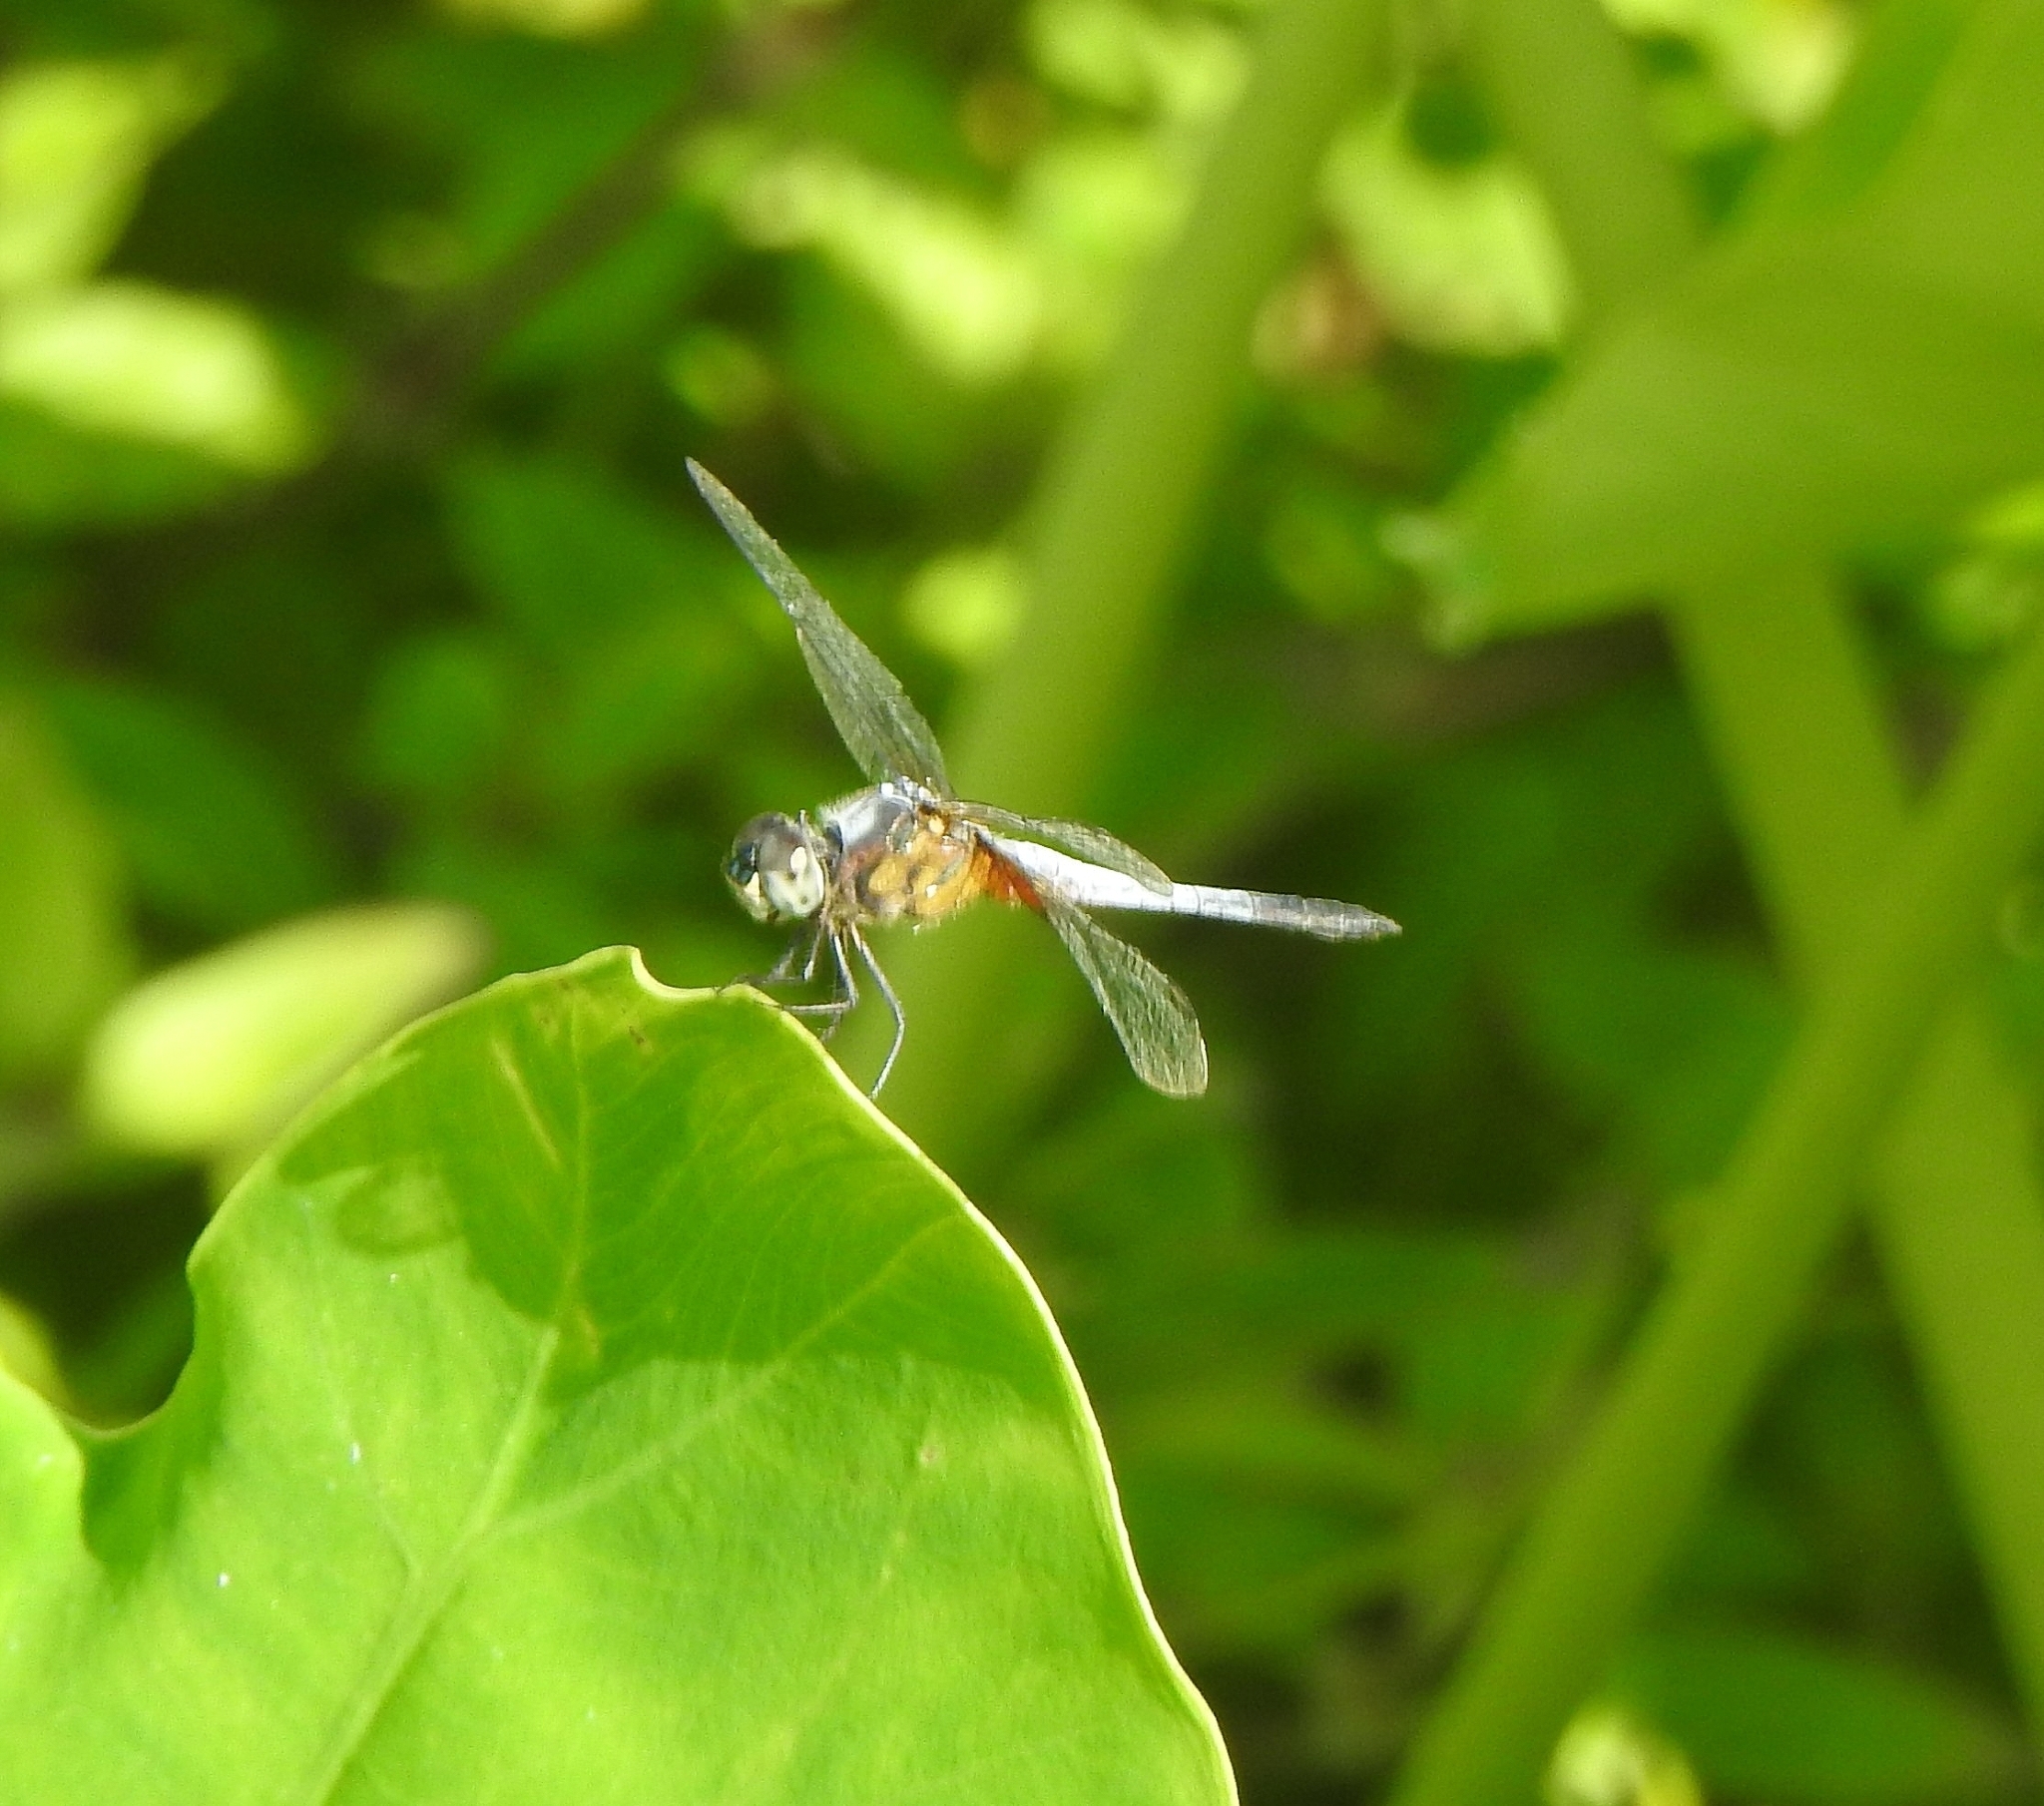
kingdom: Animalia
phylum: Arthropoda
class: Insecta
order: Odonata
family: Libellulidae
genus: Brachydiplax
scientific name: Brachydiplax chalybea
